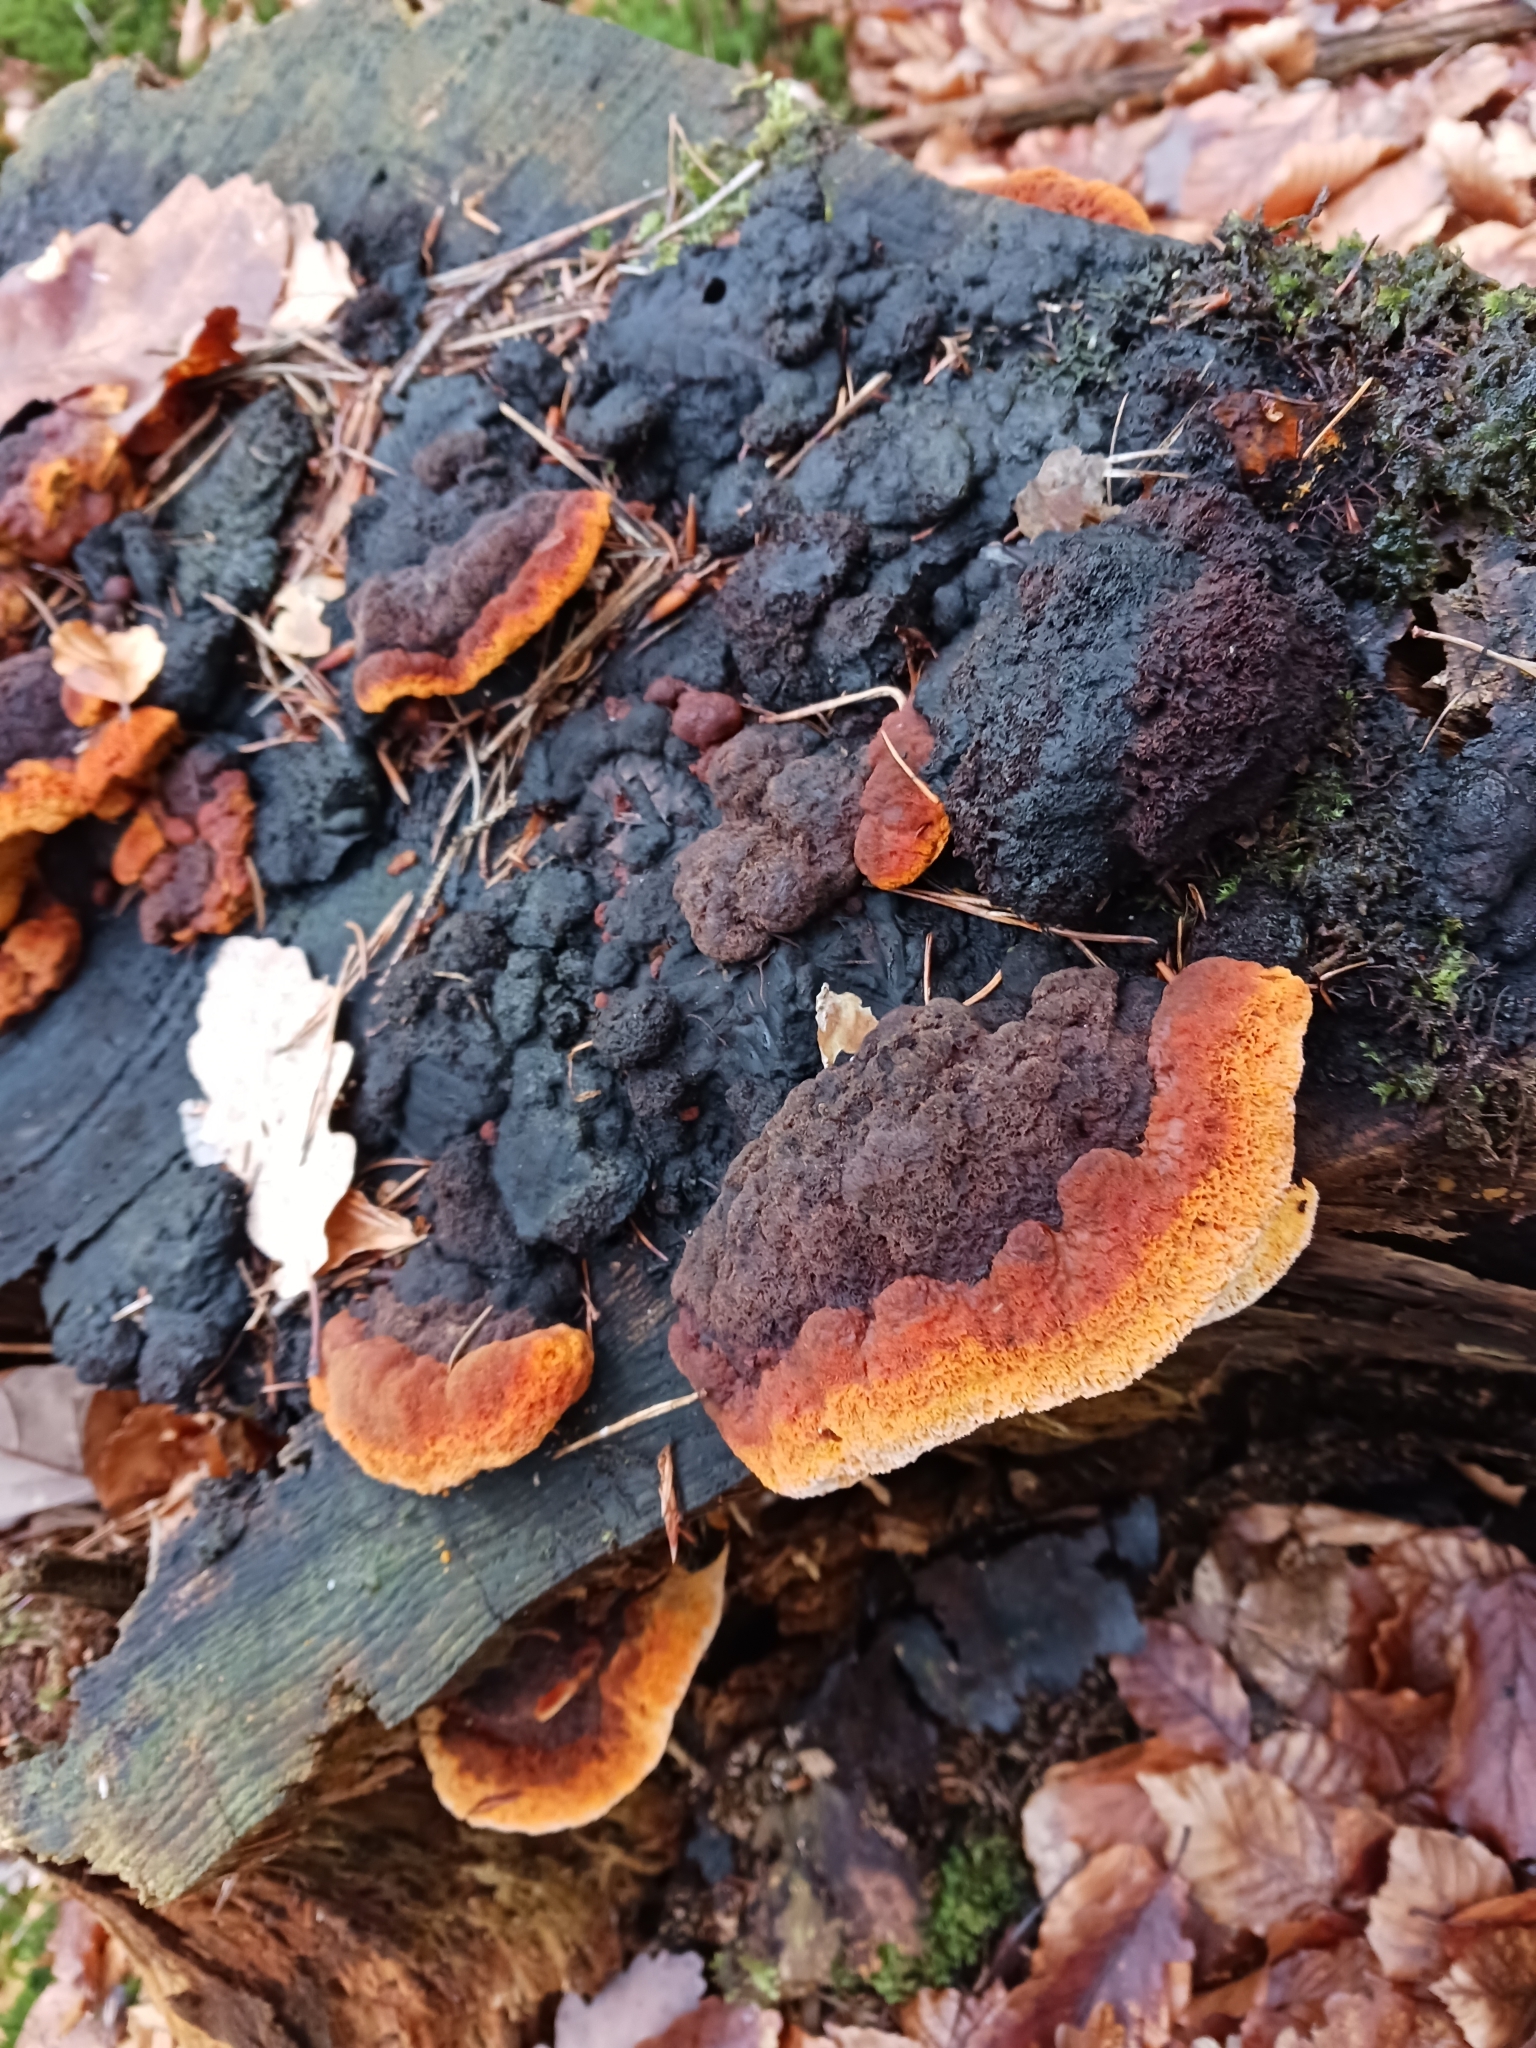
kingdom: Fungi
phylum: Basidiomycota
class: Agaricomycetes
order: Gloeophyllales
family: Gloeophyllaceae
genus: Gloeophyllum
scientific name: Gloeophyllum odoratum
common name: Anise mazegill
